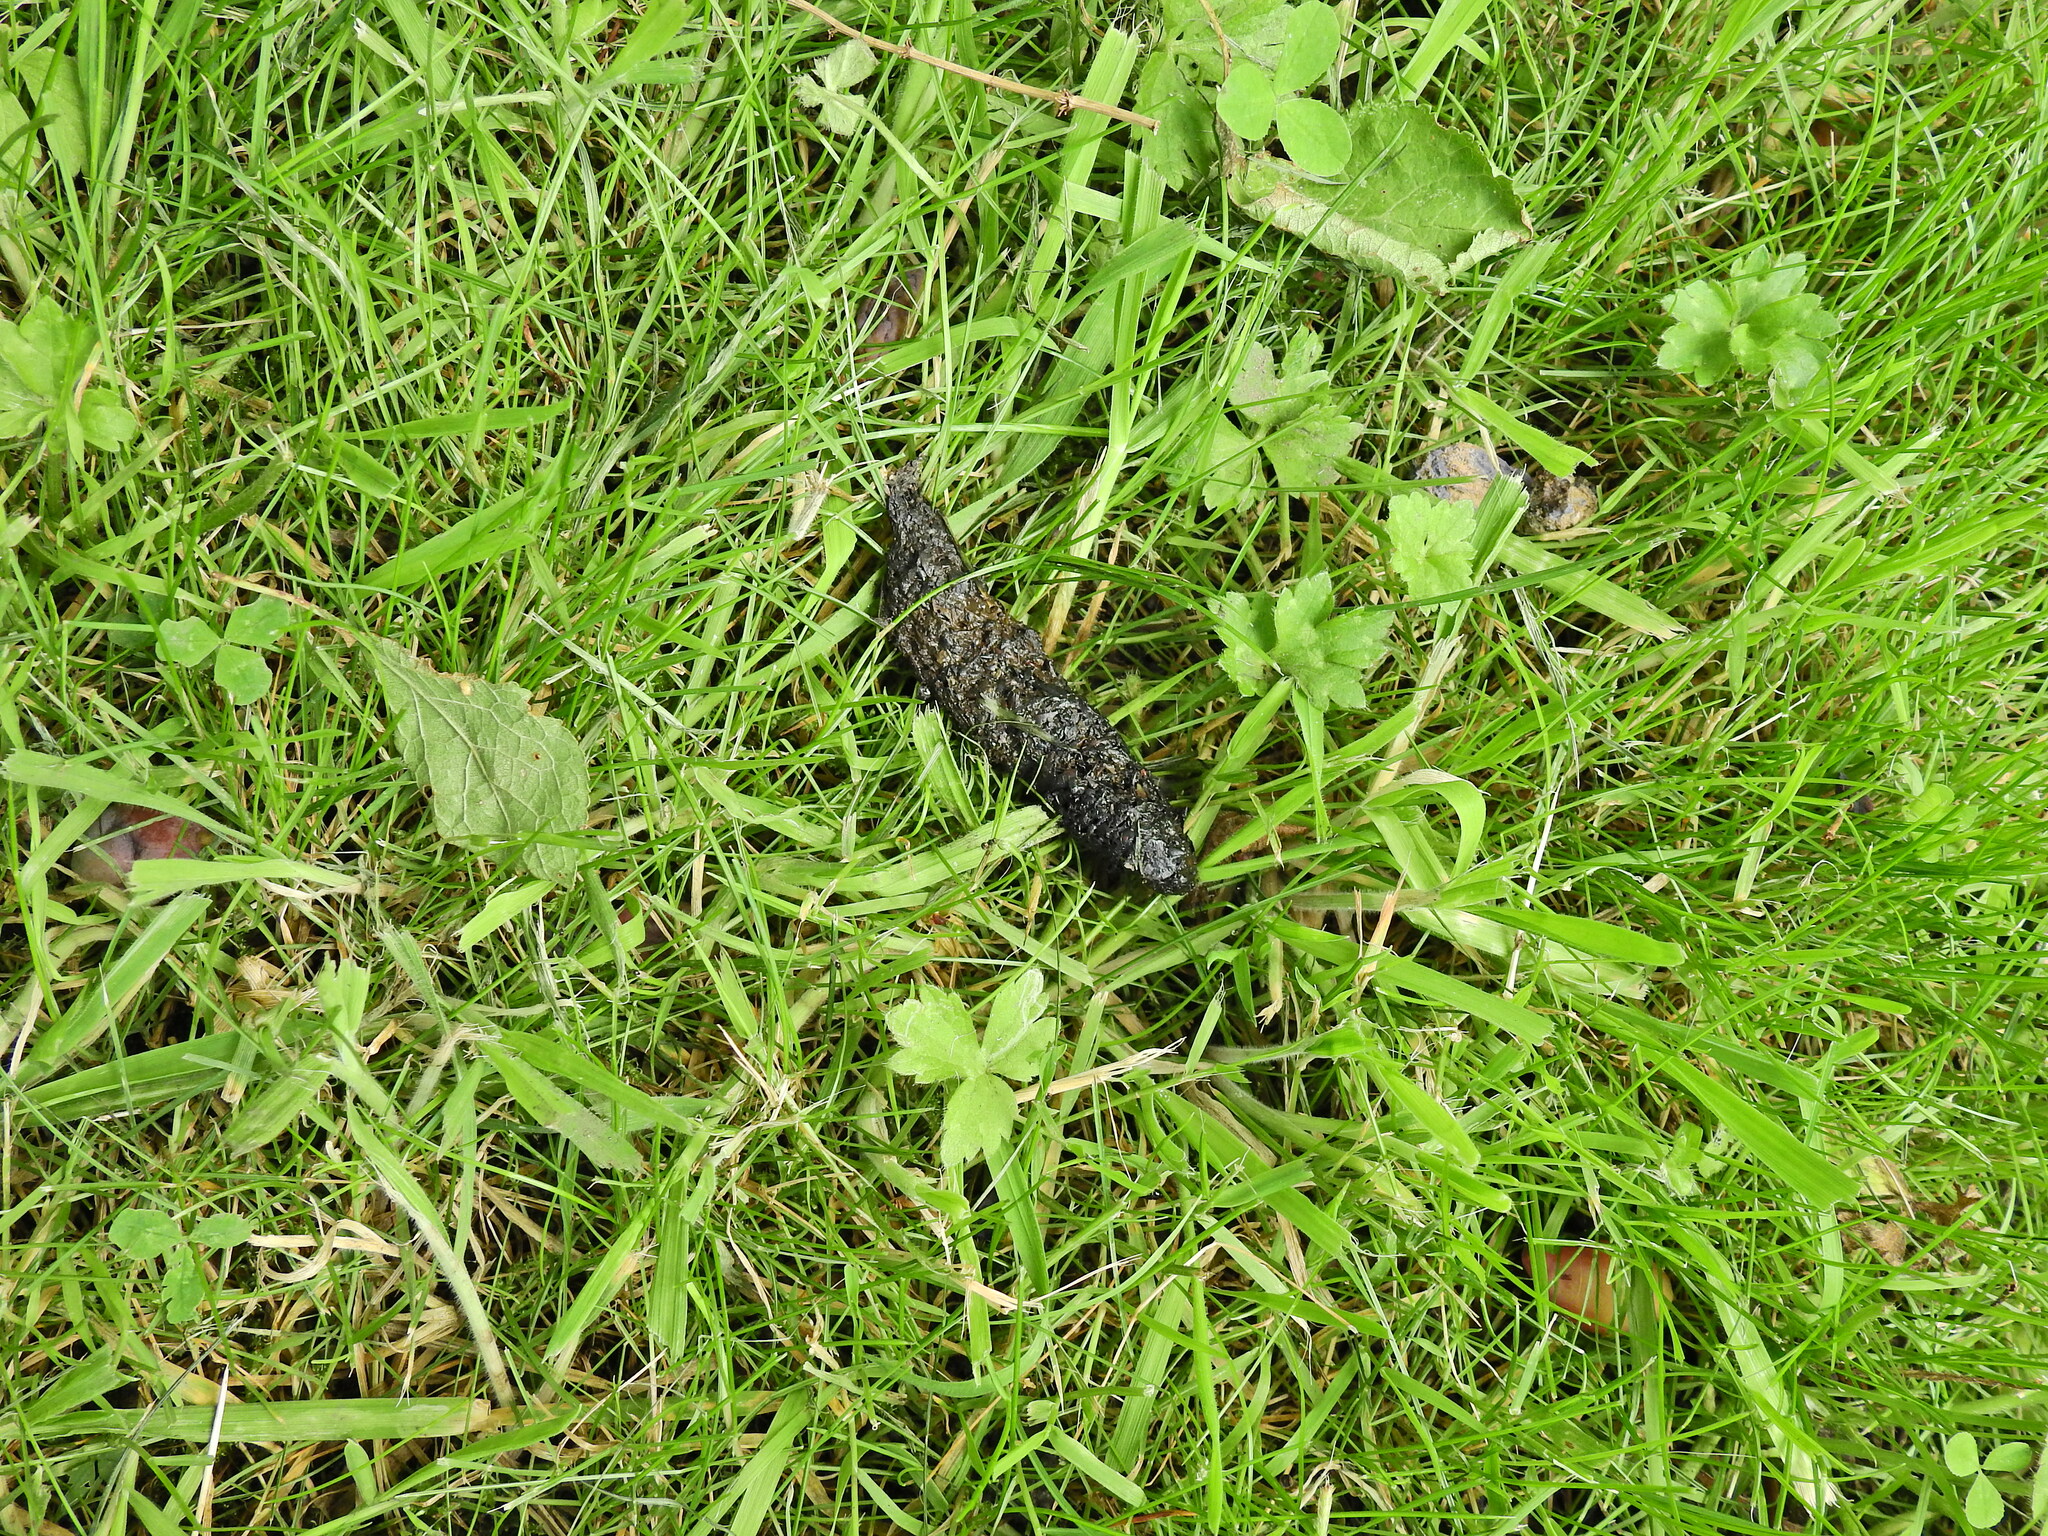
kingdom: Animalia
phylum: Chordata
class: Mammalia
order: Carnivora
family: Canidae
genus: Vulpes
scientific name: Vulpes vulpes
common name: Red fox
